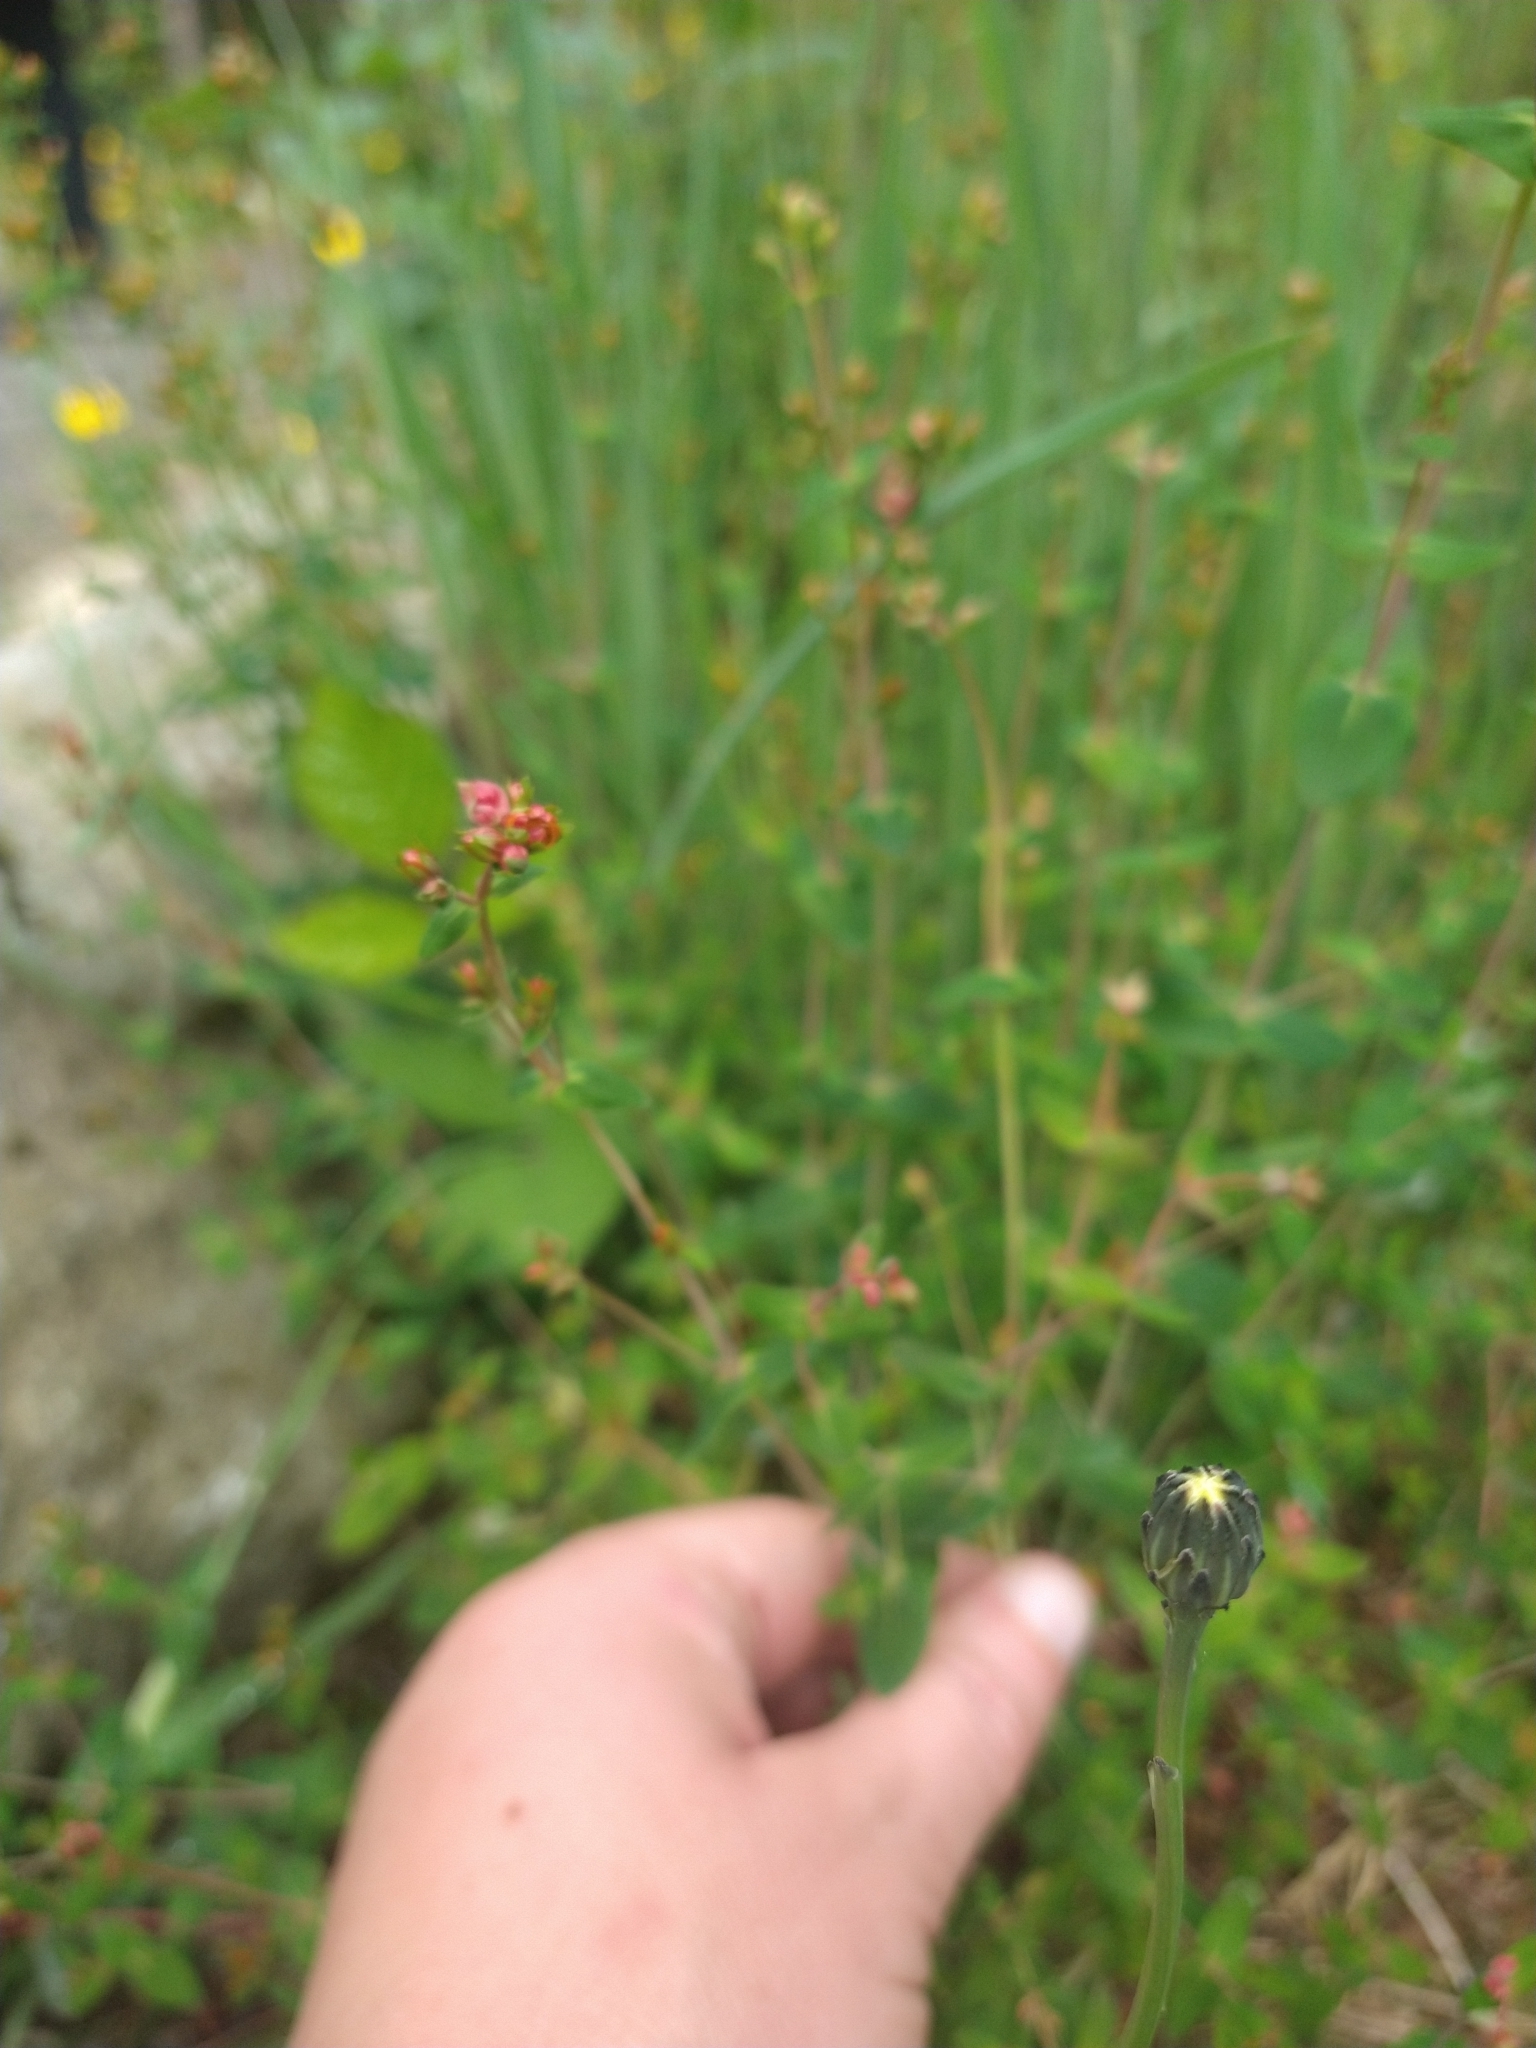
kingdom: Plantae
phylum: Tracheophyta
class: Magnoliopsida
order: Malpighiales
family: Hypericaceae
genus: Hypericum
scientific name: Hypericum pulchrum
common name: Slender st. john's-wort
